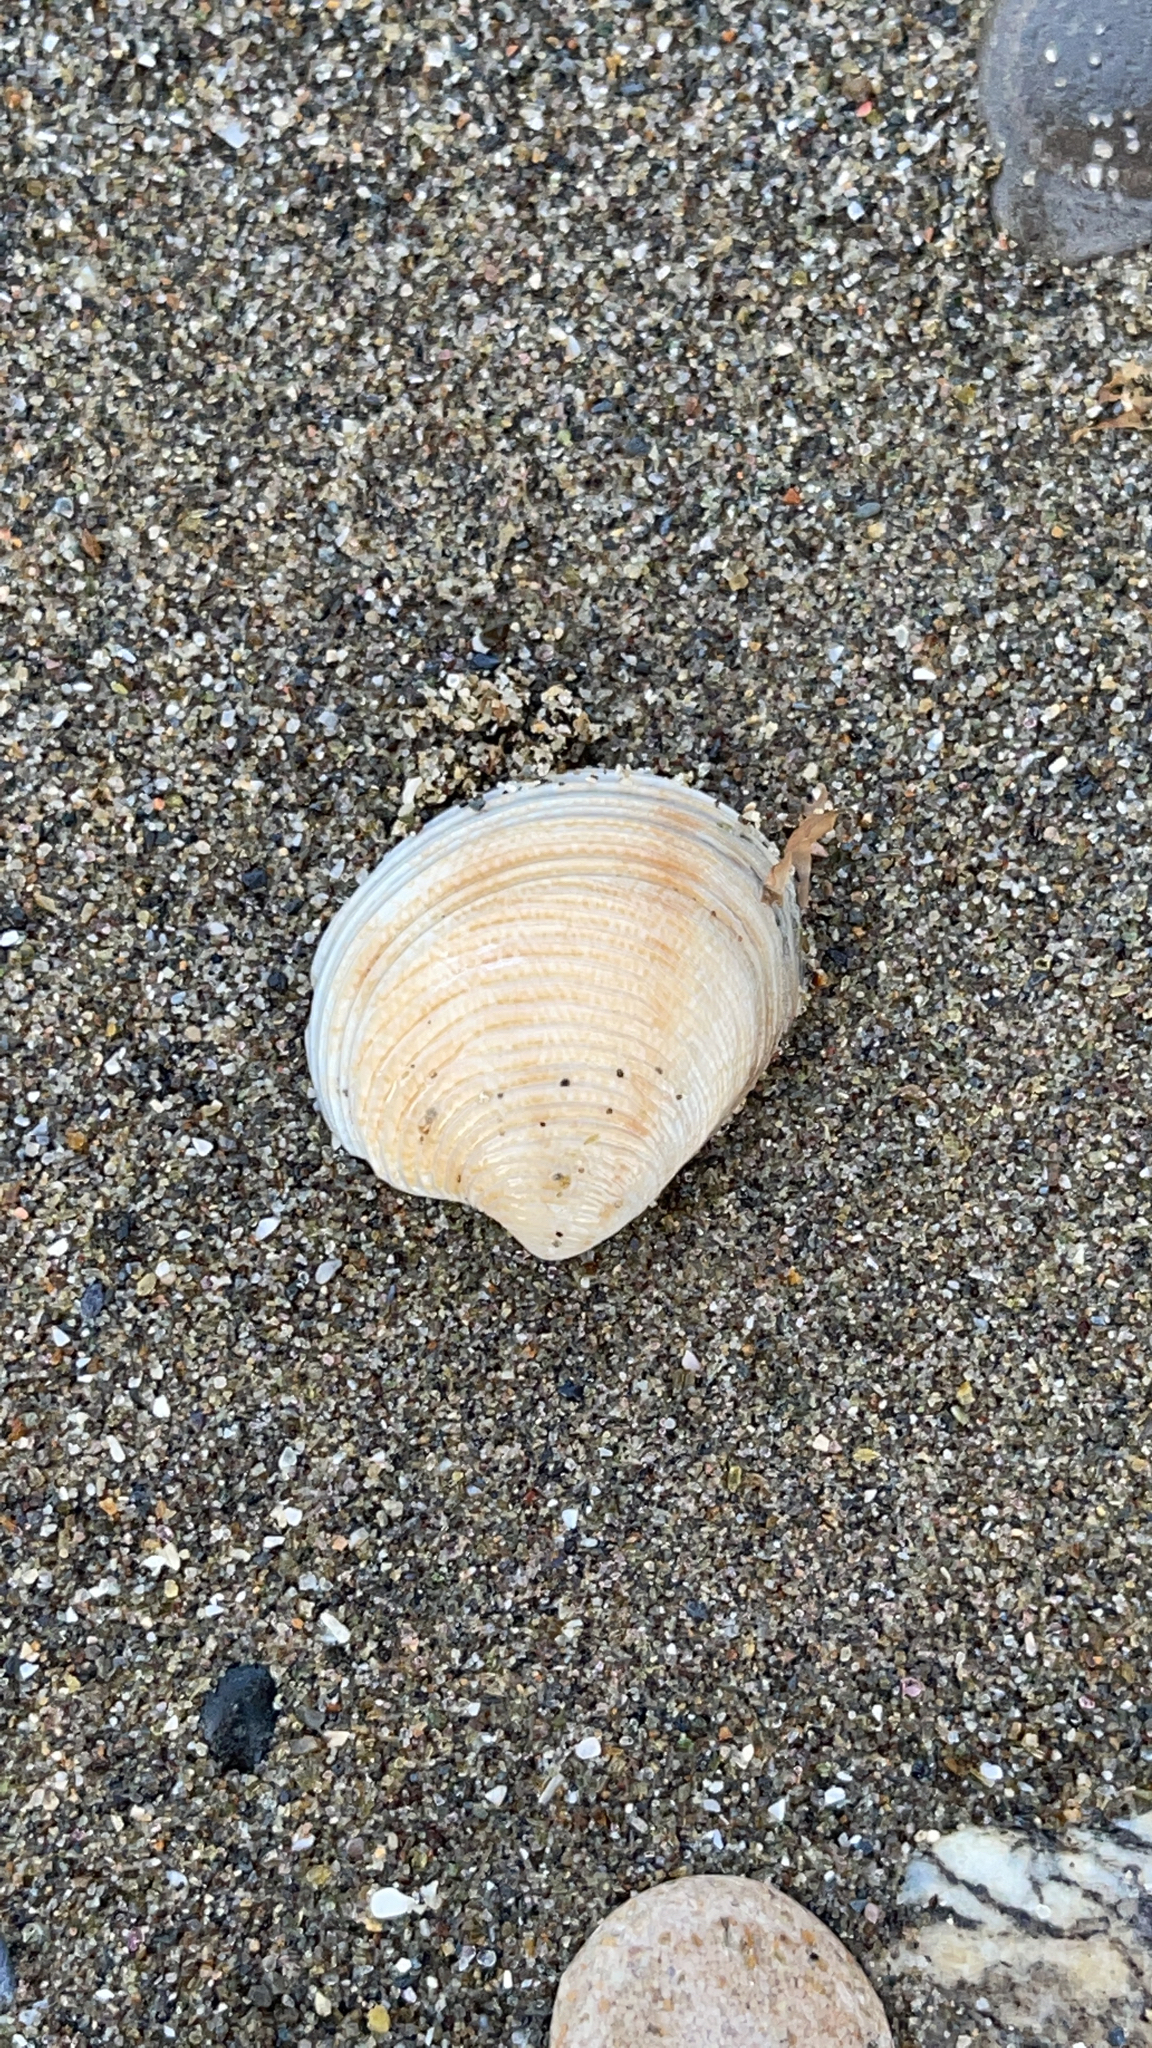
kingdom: Animalia
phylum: Mollusca
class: Bivalvia
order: Venerida
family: Veneridae
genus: Chamelea
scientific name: Chamelea gallina
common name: Chicken venus
